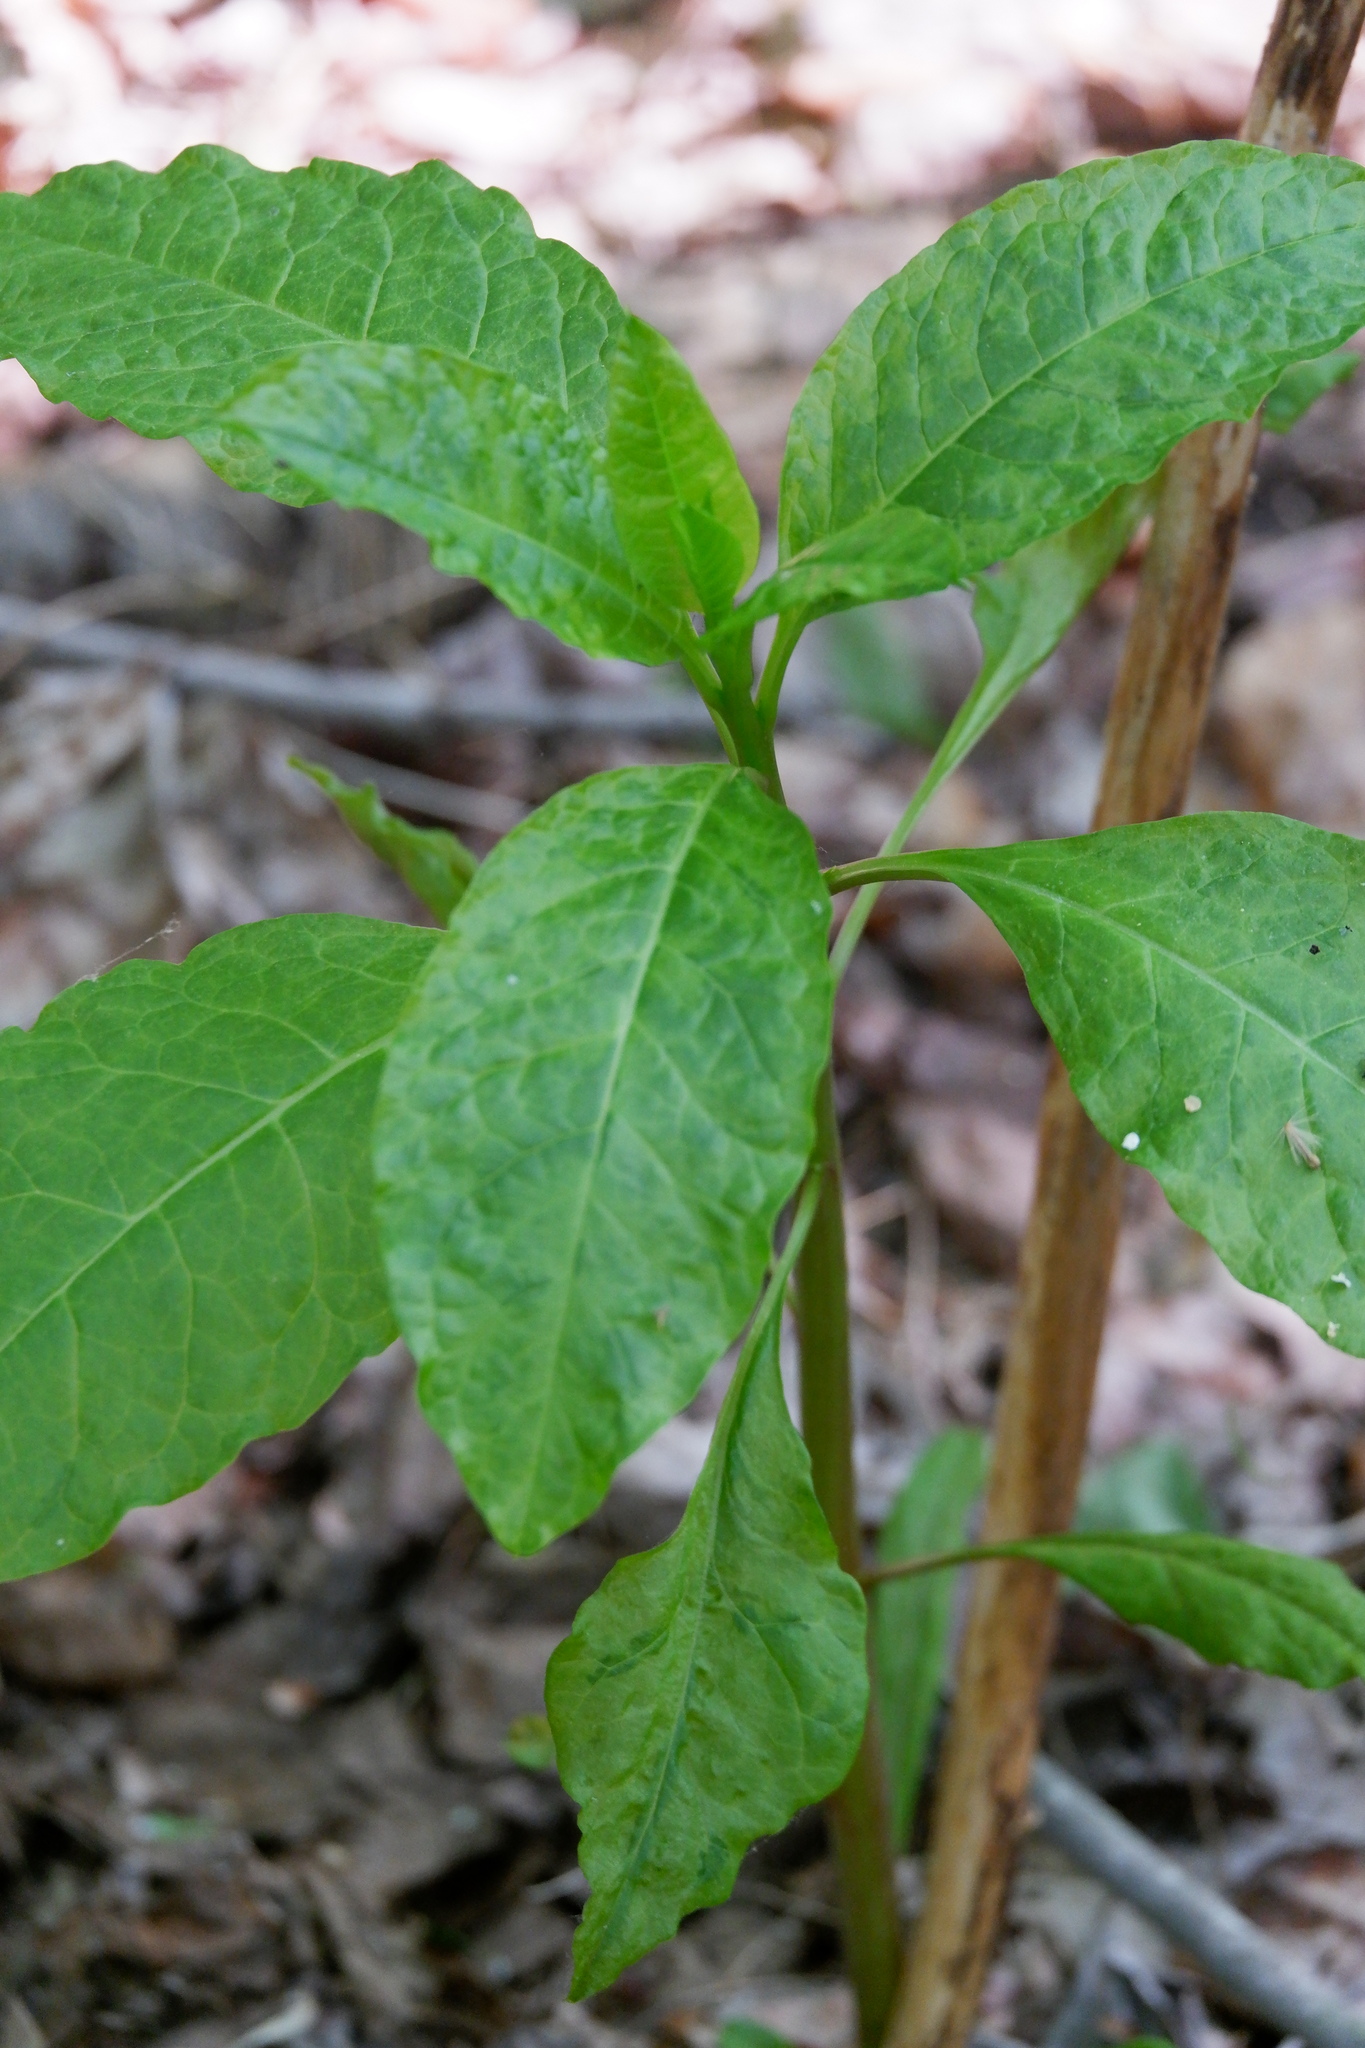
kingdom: Viruses
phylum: Pisuviricota
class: Stelpaviricetes
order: Patatavirales
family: Potyviridae
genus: Potyvirus
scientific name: Potyvirus Pokeweed mosaic virus
